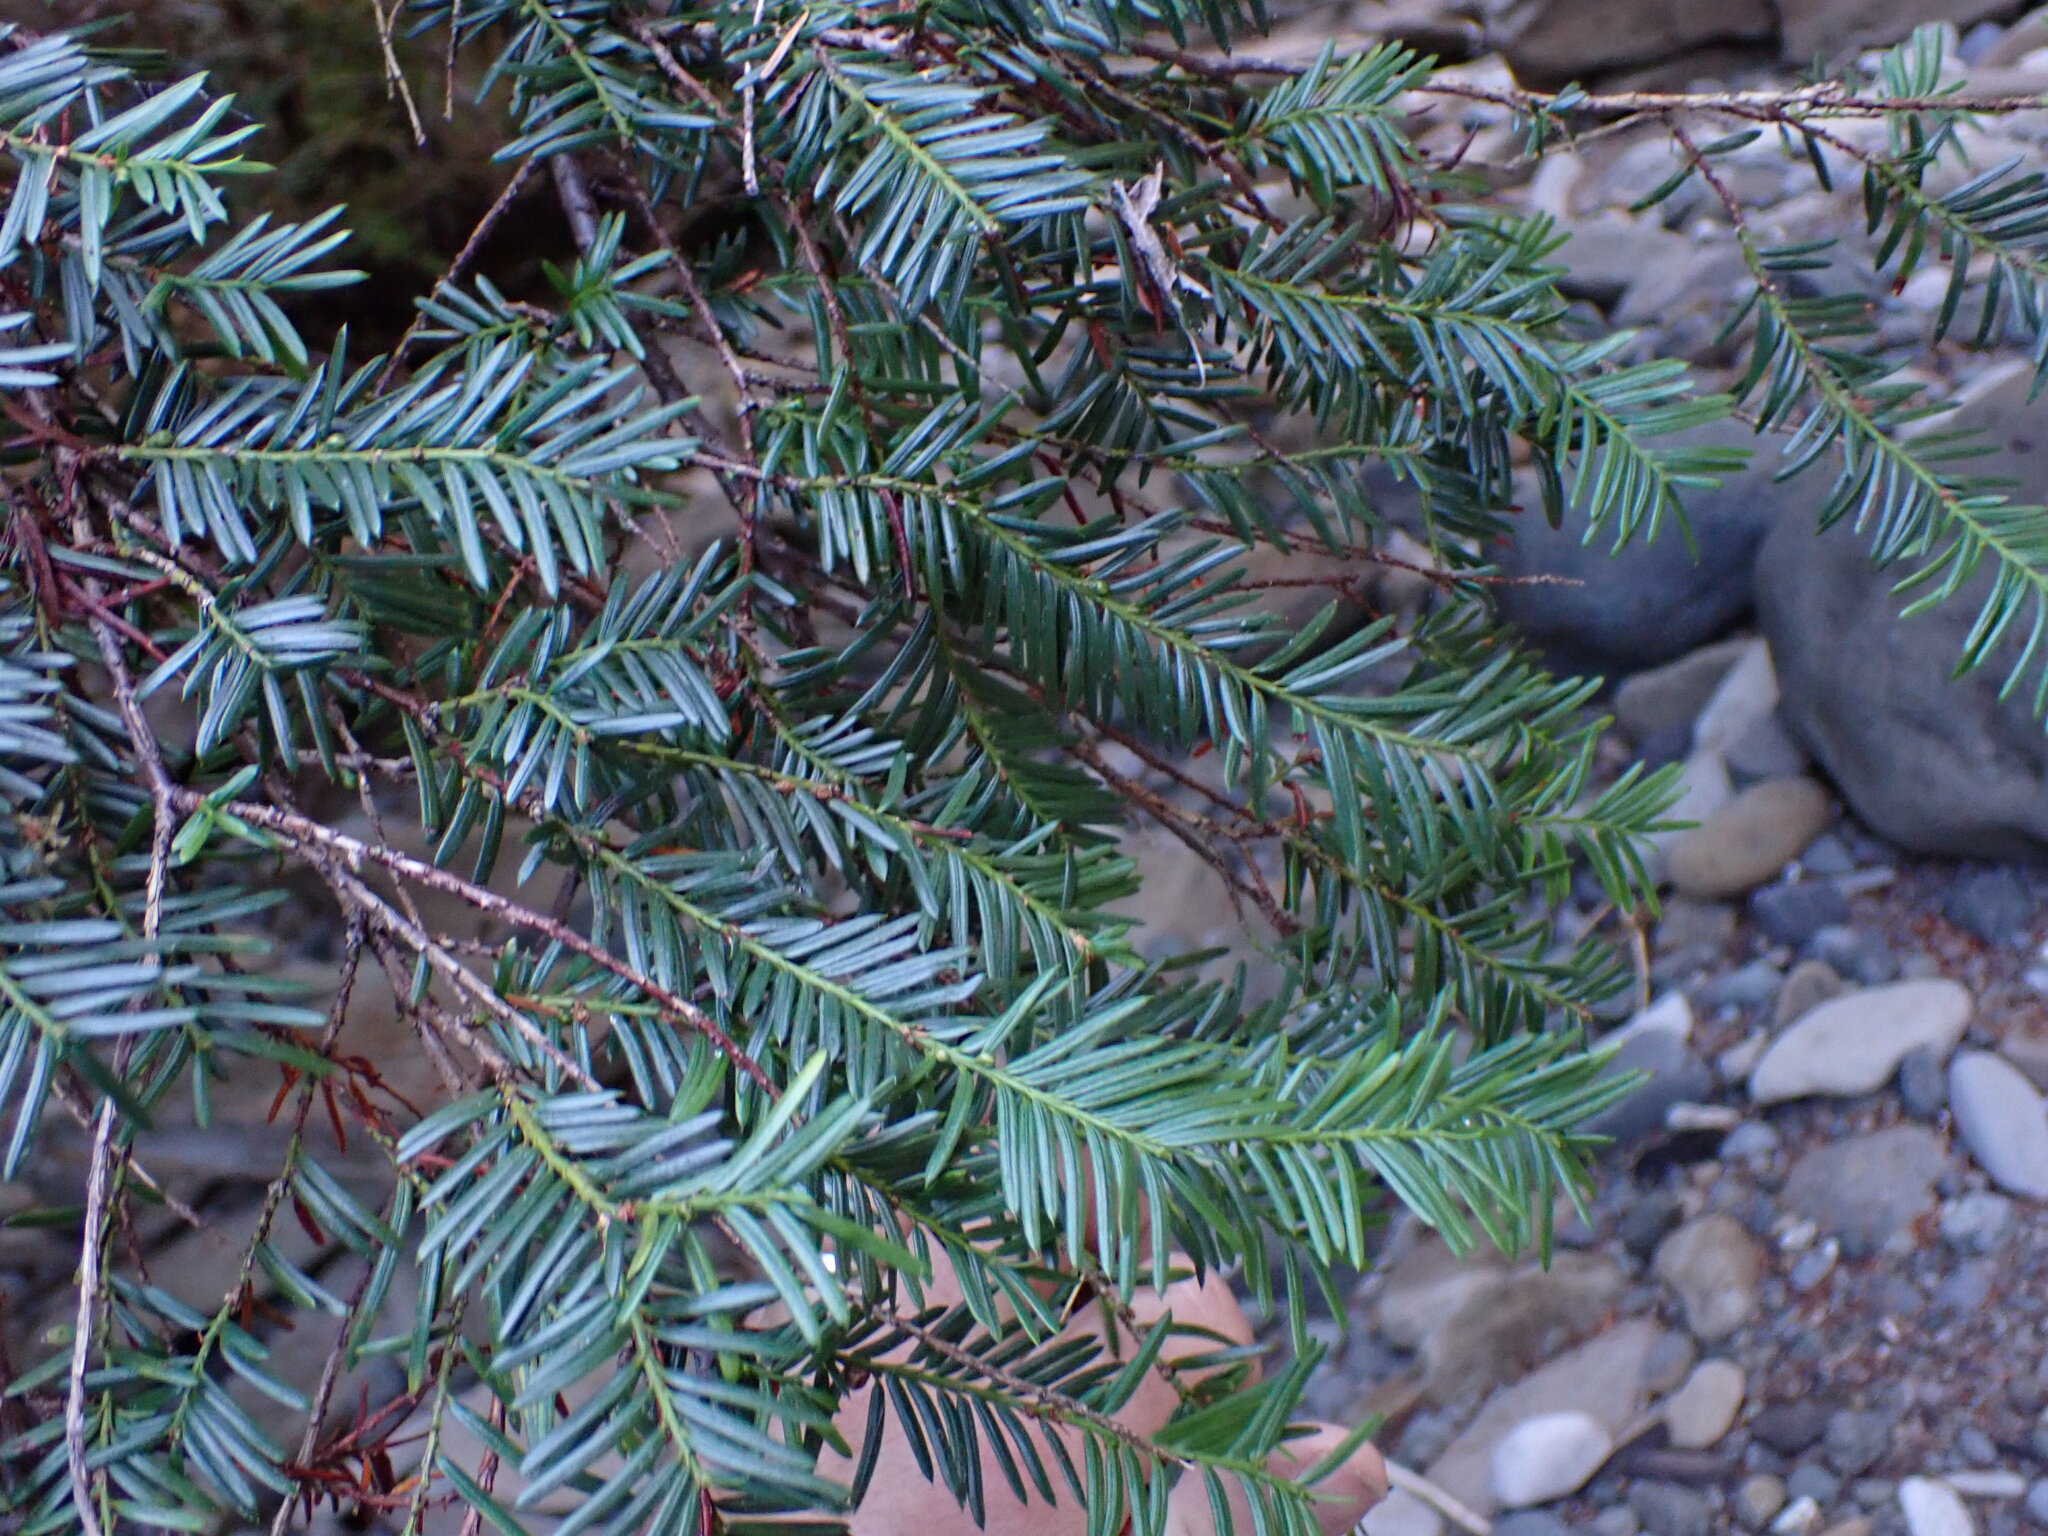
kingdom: Plantae
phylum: Tracheophyta
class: Pinopsida
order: Pinales
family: Taxaceae
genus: Taxus
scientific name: Taxus brevifolia
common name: Pacific yew
